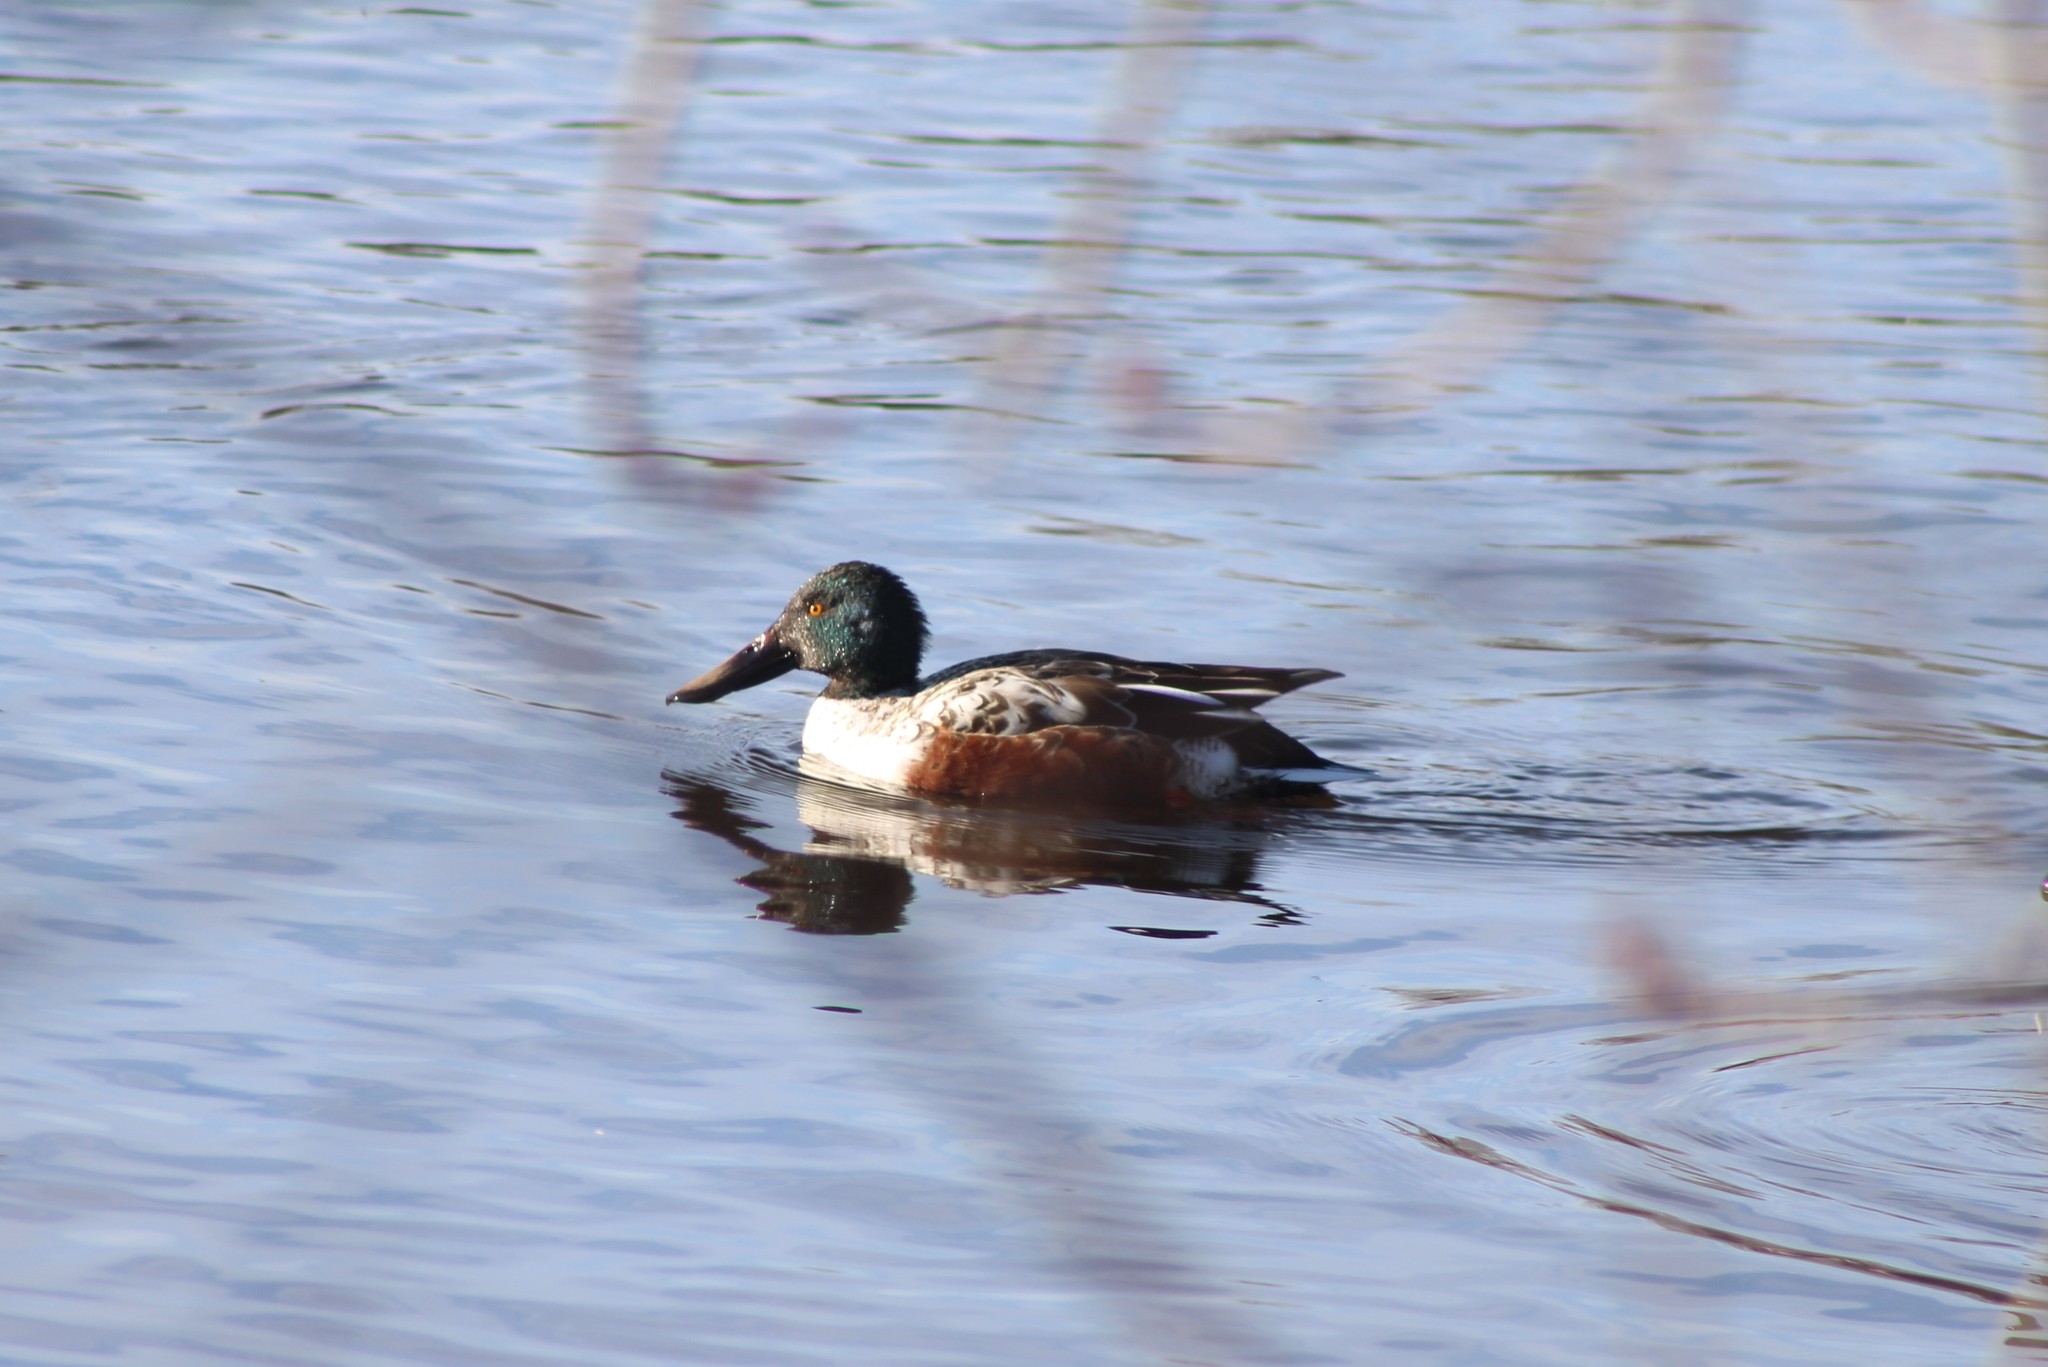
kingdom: Animalia
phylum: Chordata
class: Aves
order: Anseriformes
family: Anatidae
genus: Spatula
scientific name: Spatula clypeata
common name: Northern shoveler
